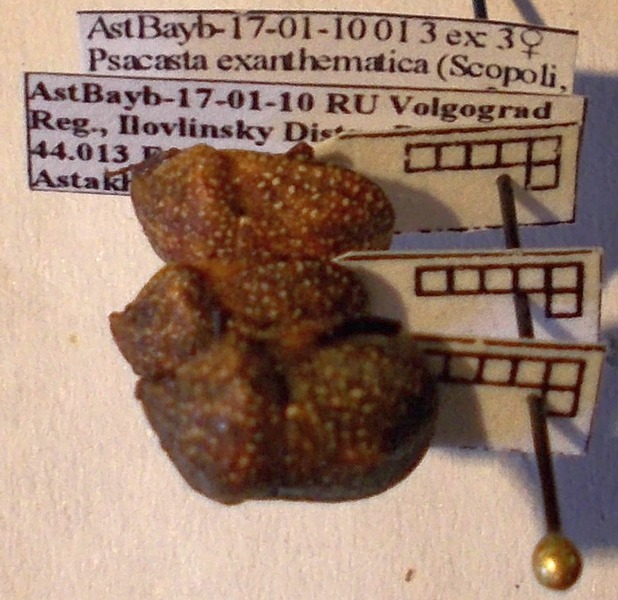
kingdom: Animalia
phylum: Arthropoda
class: Insecta
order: Hemiptera
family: Scutelleridae
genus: Psacasta
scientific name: Psacasta exanthematica
